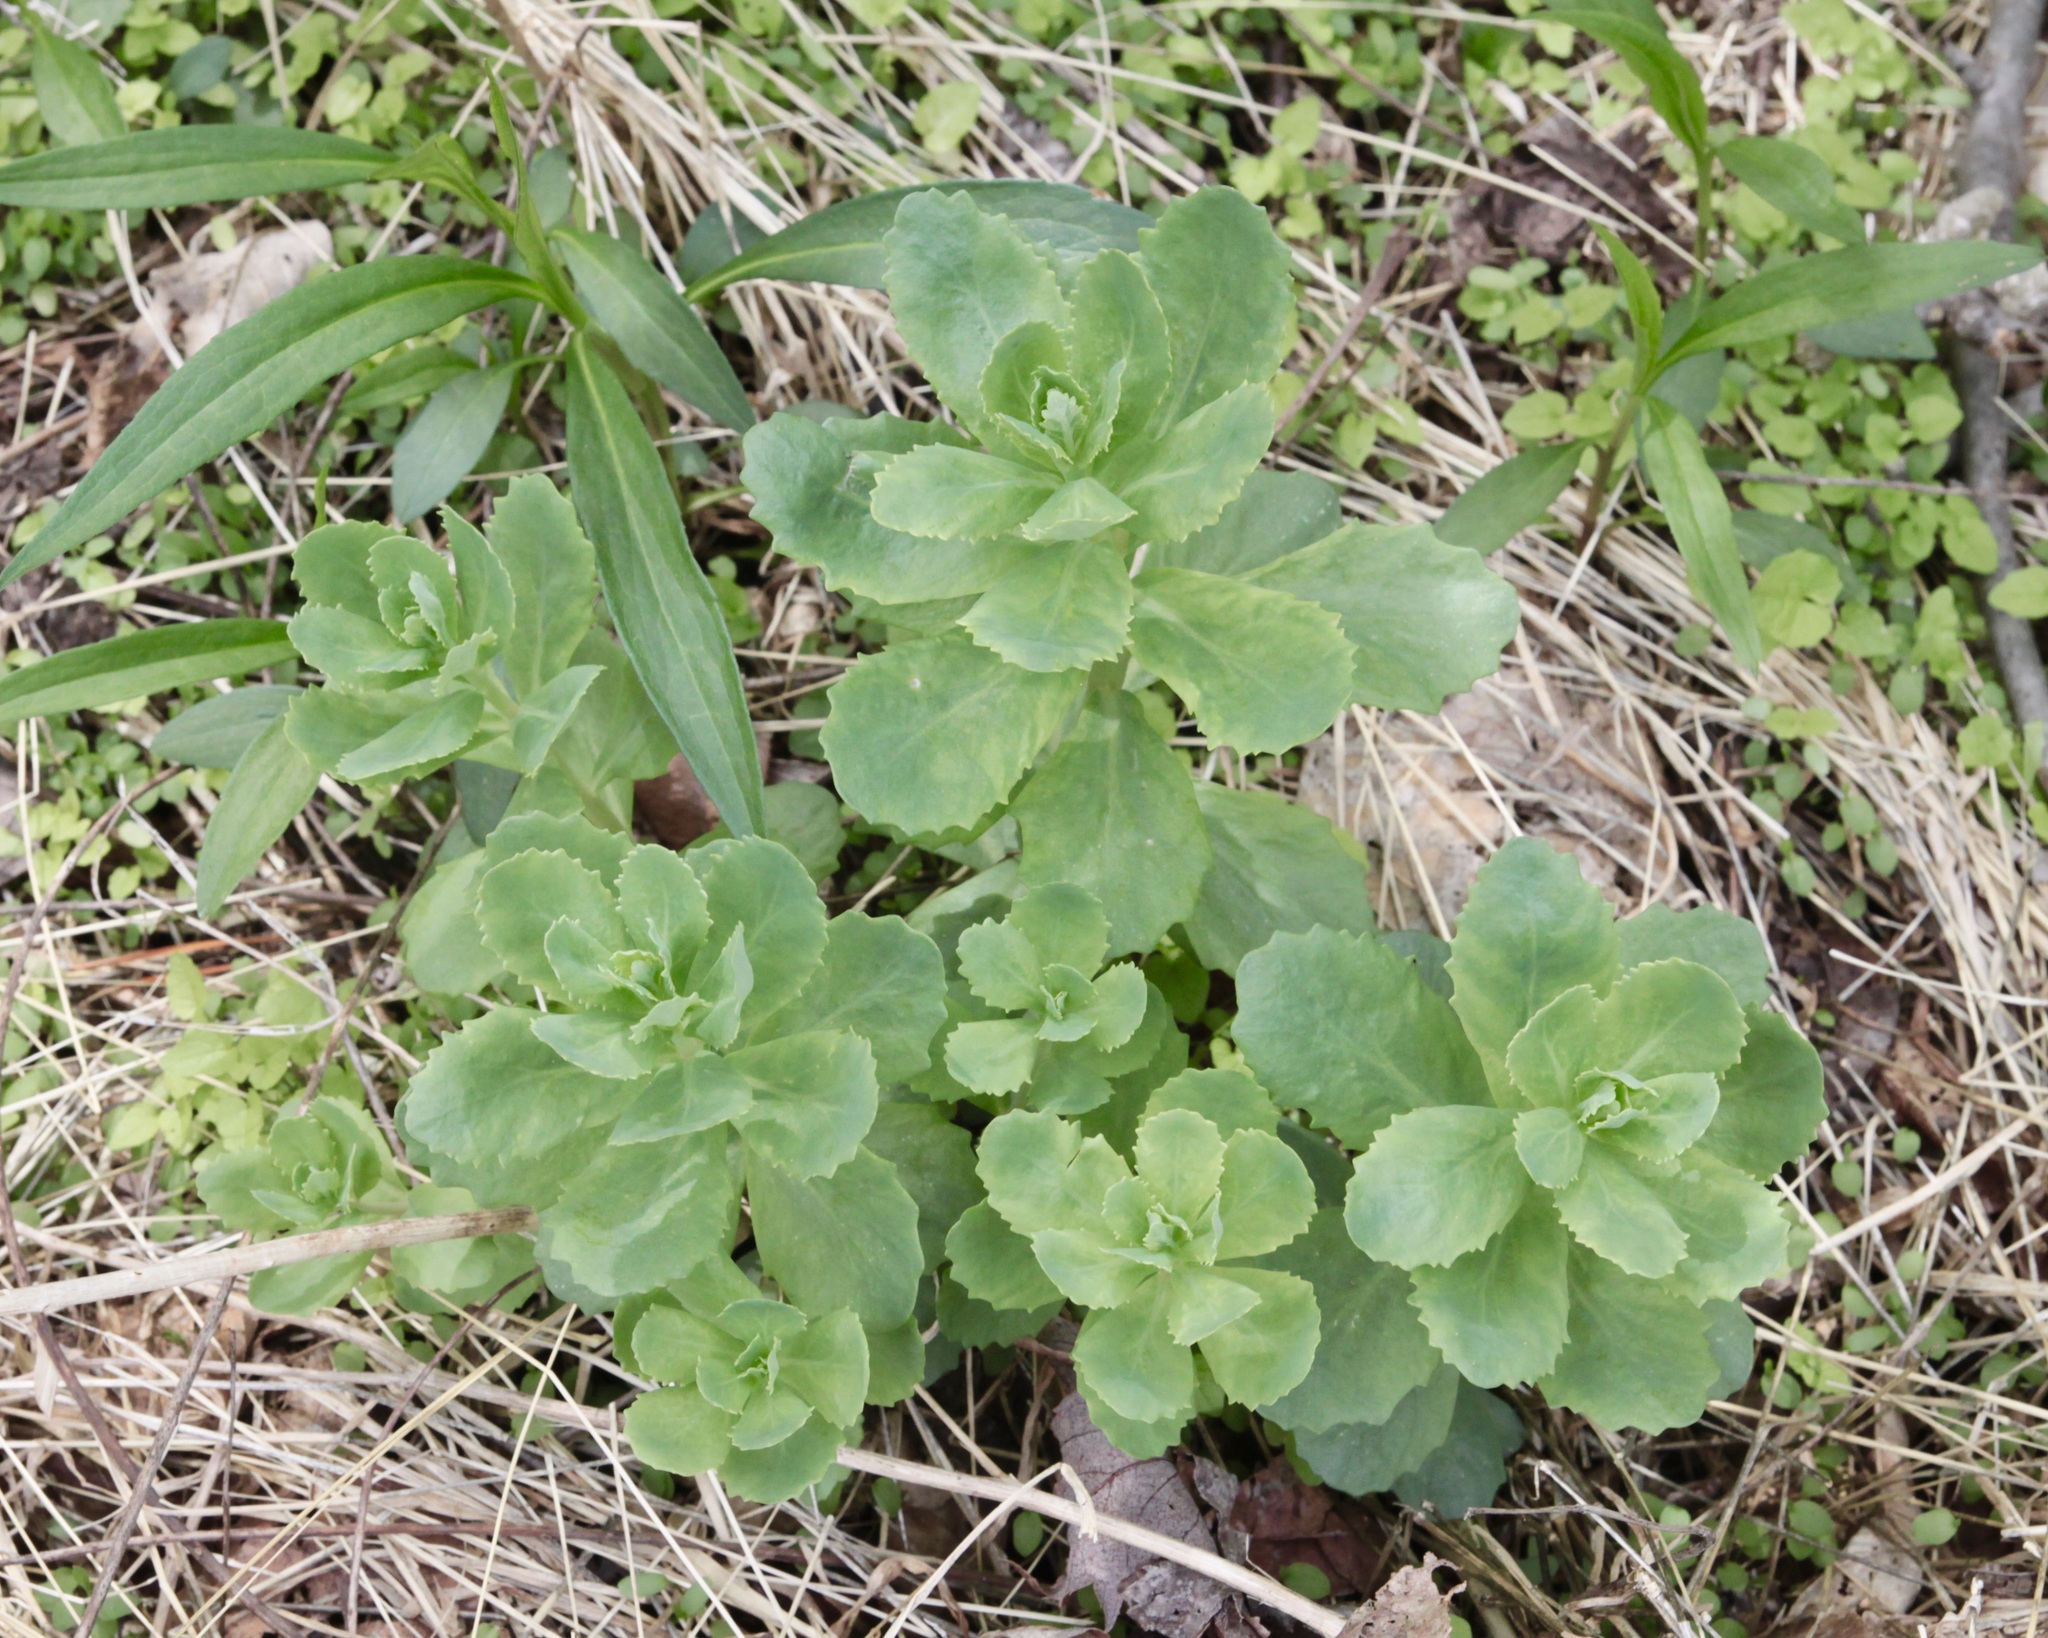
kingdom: Plantae
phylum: Tracheophyta
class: Magnoliopsida
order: Saxifragales
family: Crassulaceae
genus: Hylotelephium
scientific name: Hylotelephium telephium
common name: Live-forever
